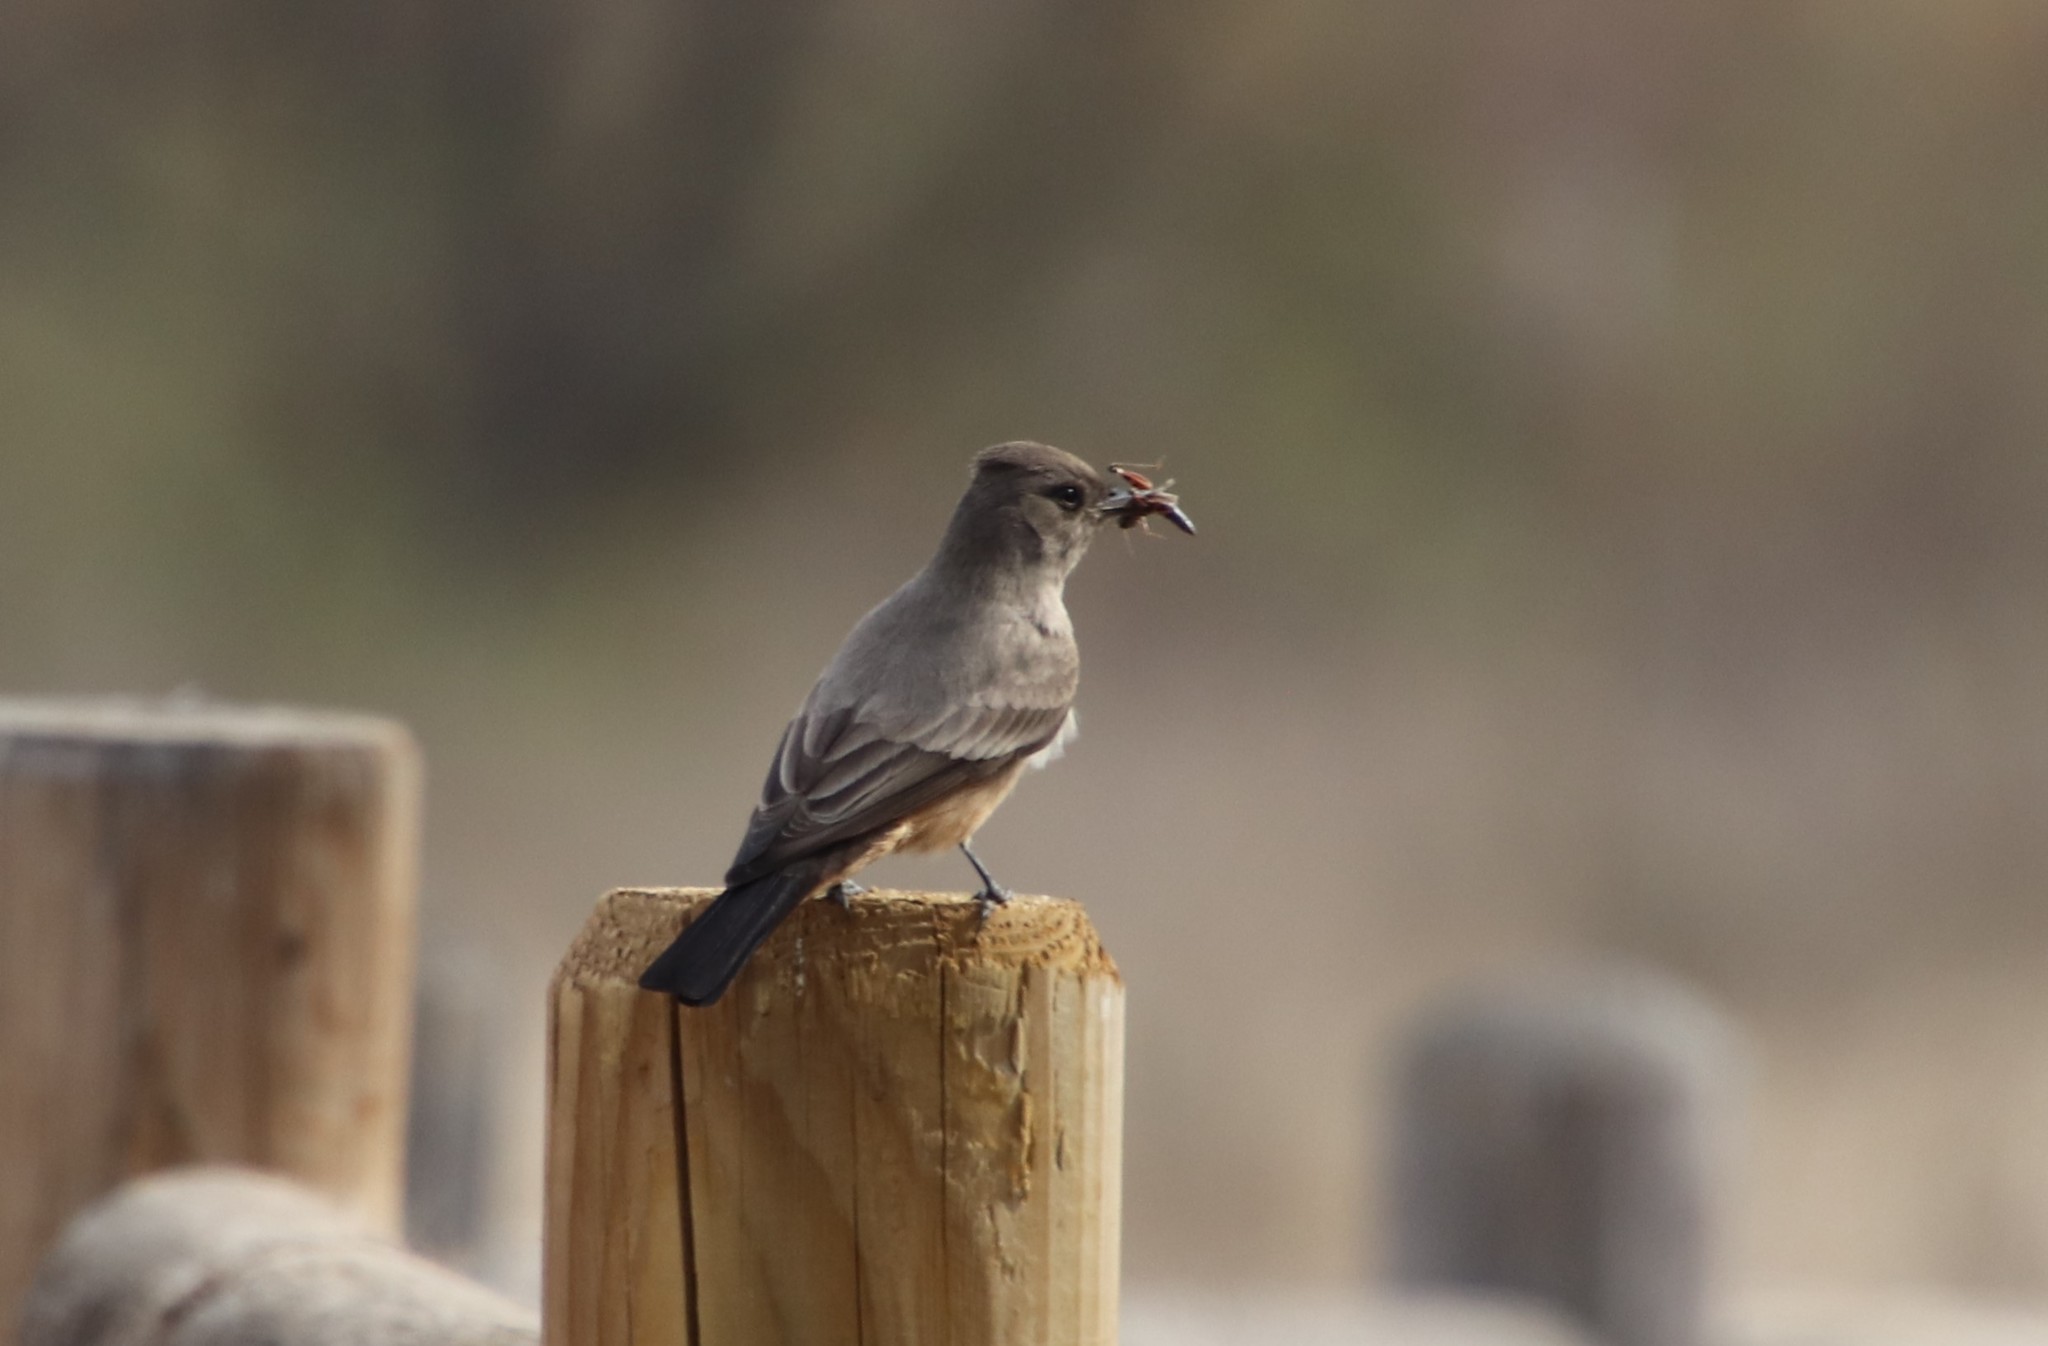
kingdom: Animalia
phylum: Chordata
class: Aves
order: Passeriformes
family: Tyrannidae
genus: Sayornis
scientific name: Sayornis saya
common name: Say's phoebe
